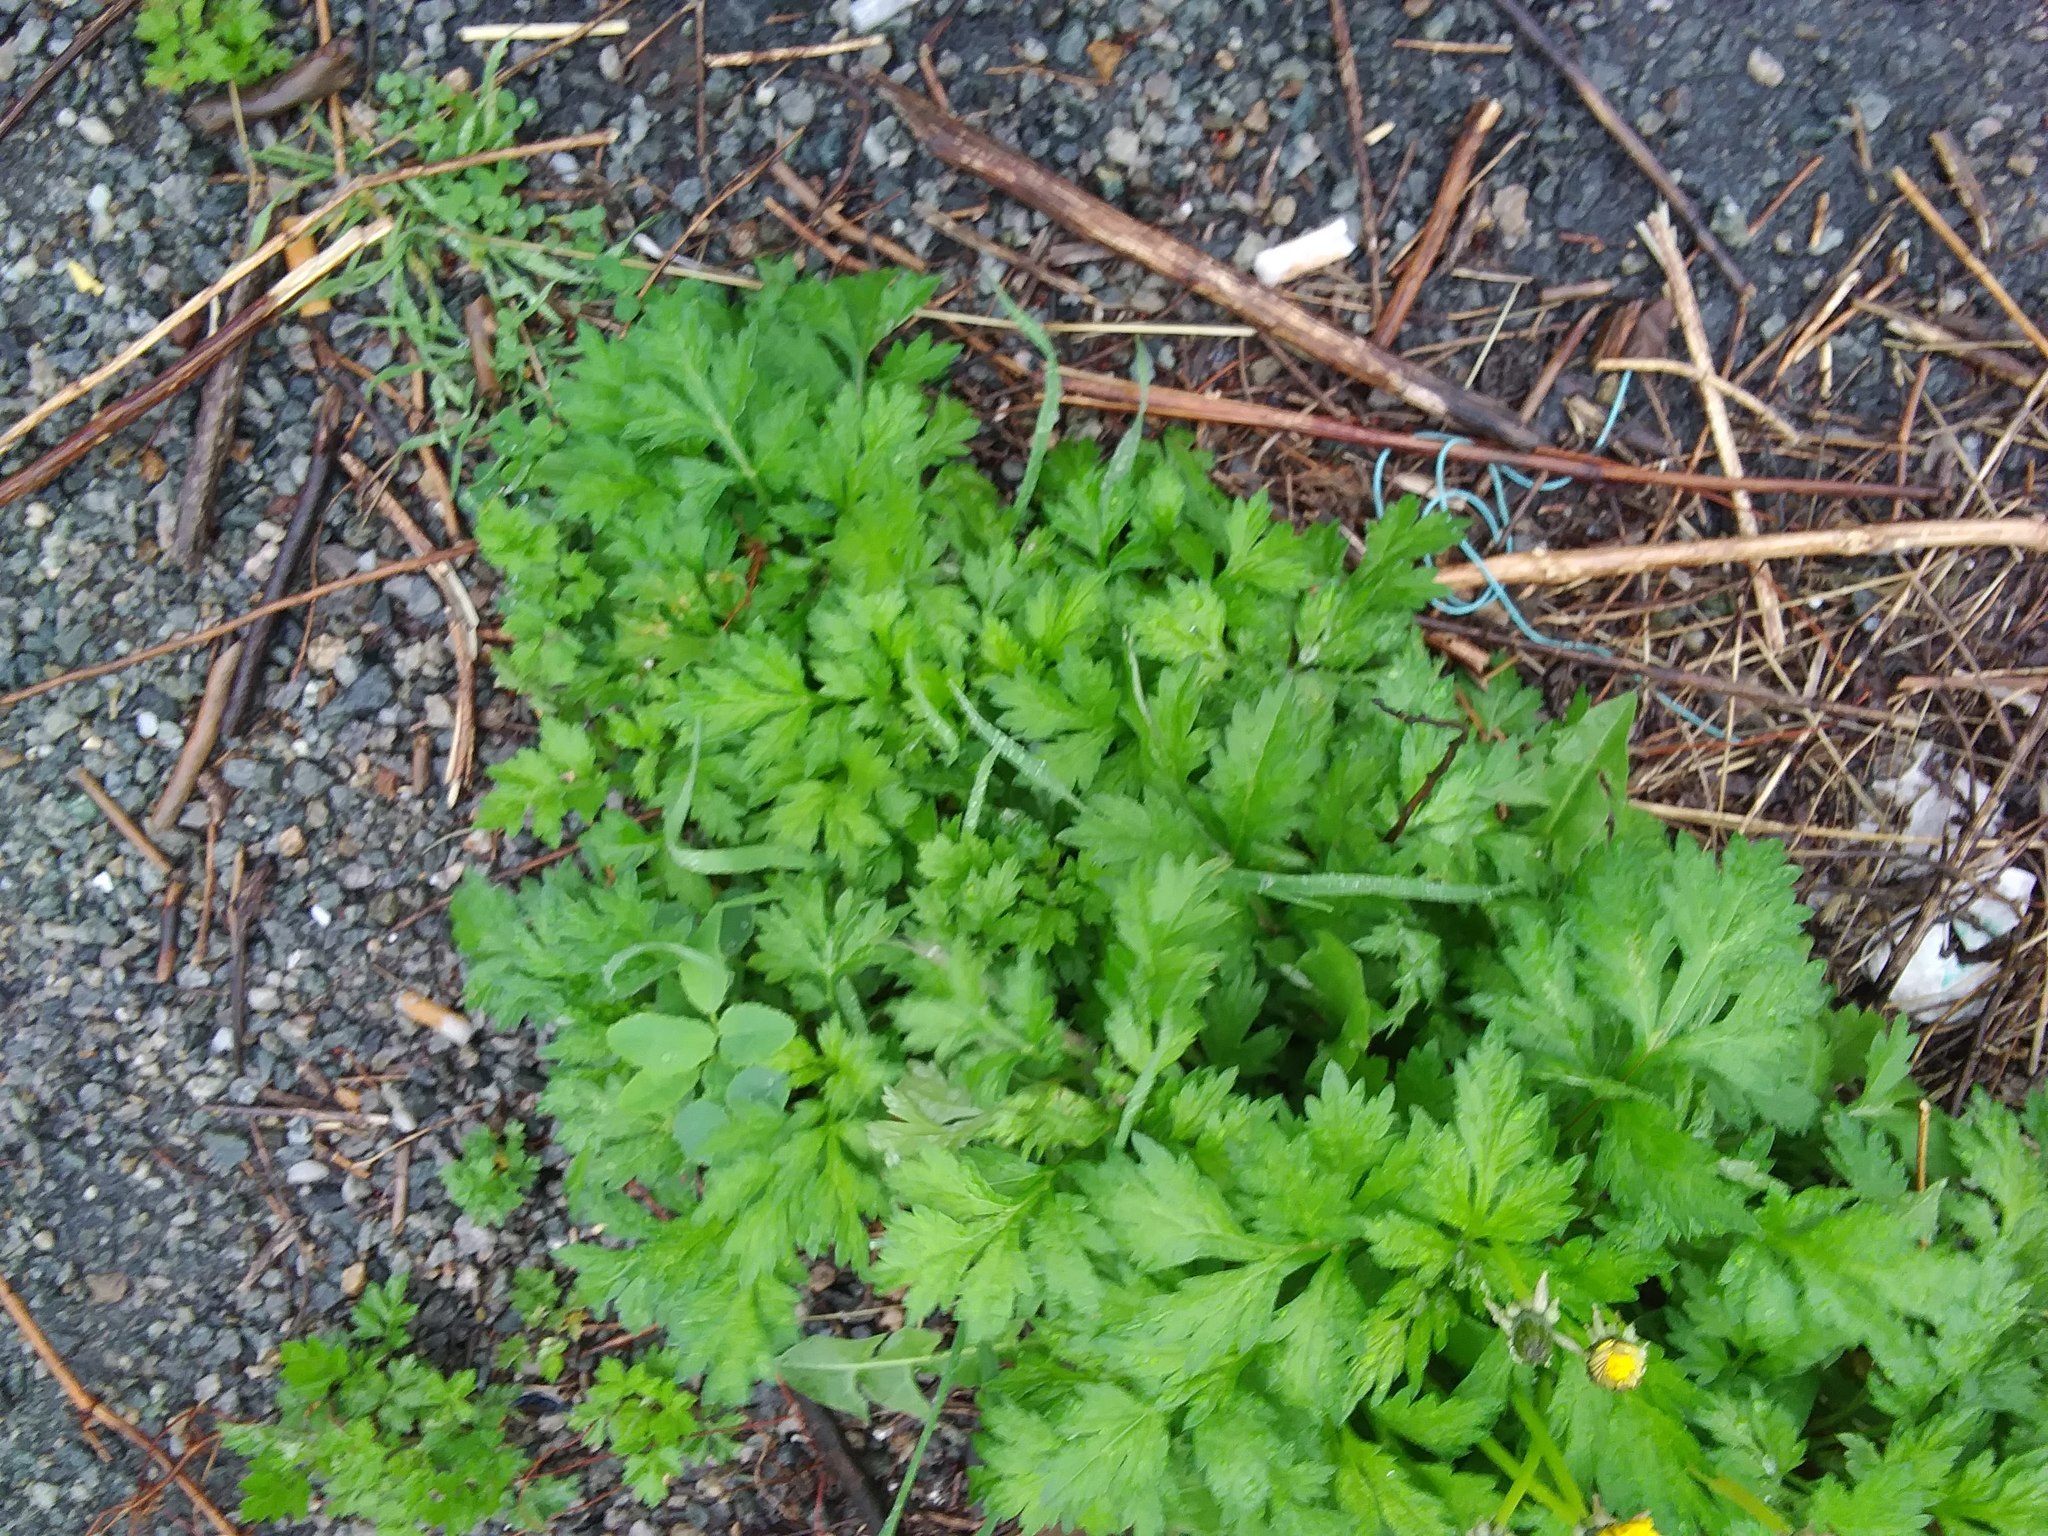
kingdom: Plantae
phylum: Tracheophyta
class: Magnoliopsida
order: Asterales
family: Asteraceae
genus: Artemisia
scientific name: Artemisia vulgaris
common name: Mugwort
